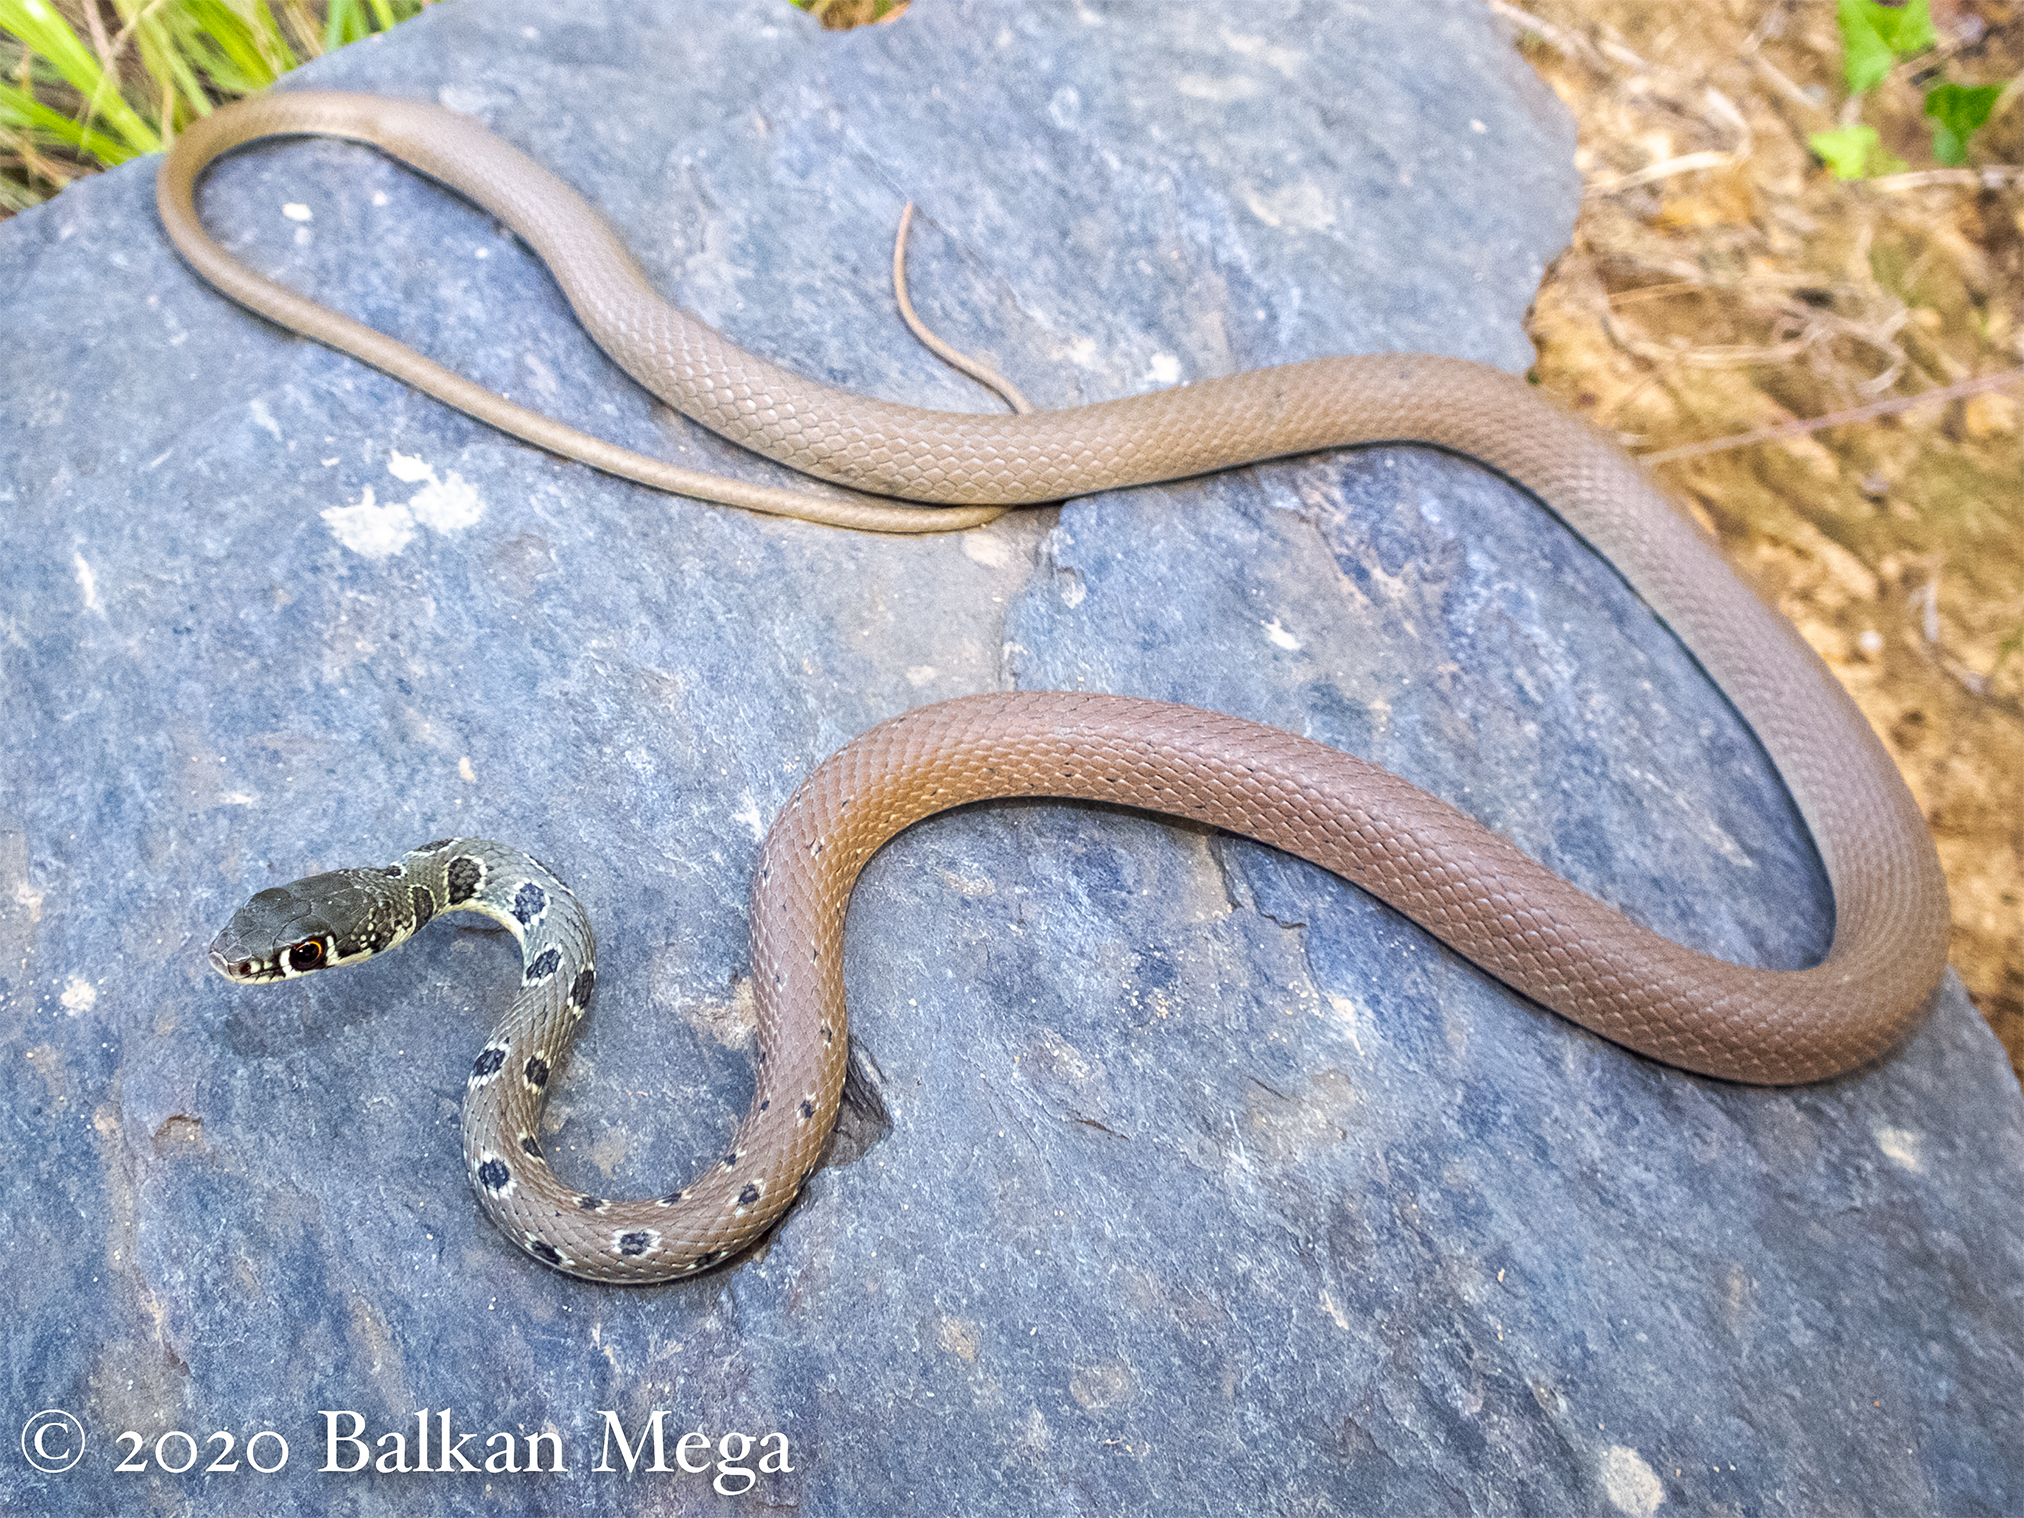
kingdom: Animalia
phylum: Chordata
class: Squamata
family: Colubridae
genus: Platyceps
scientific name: Platyceps najadum
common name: Dahl's whip snake
